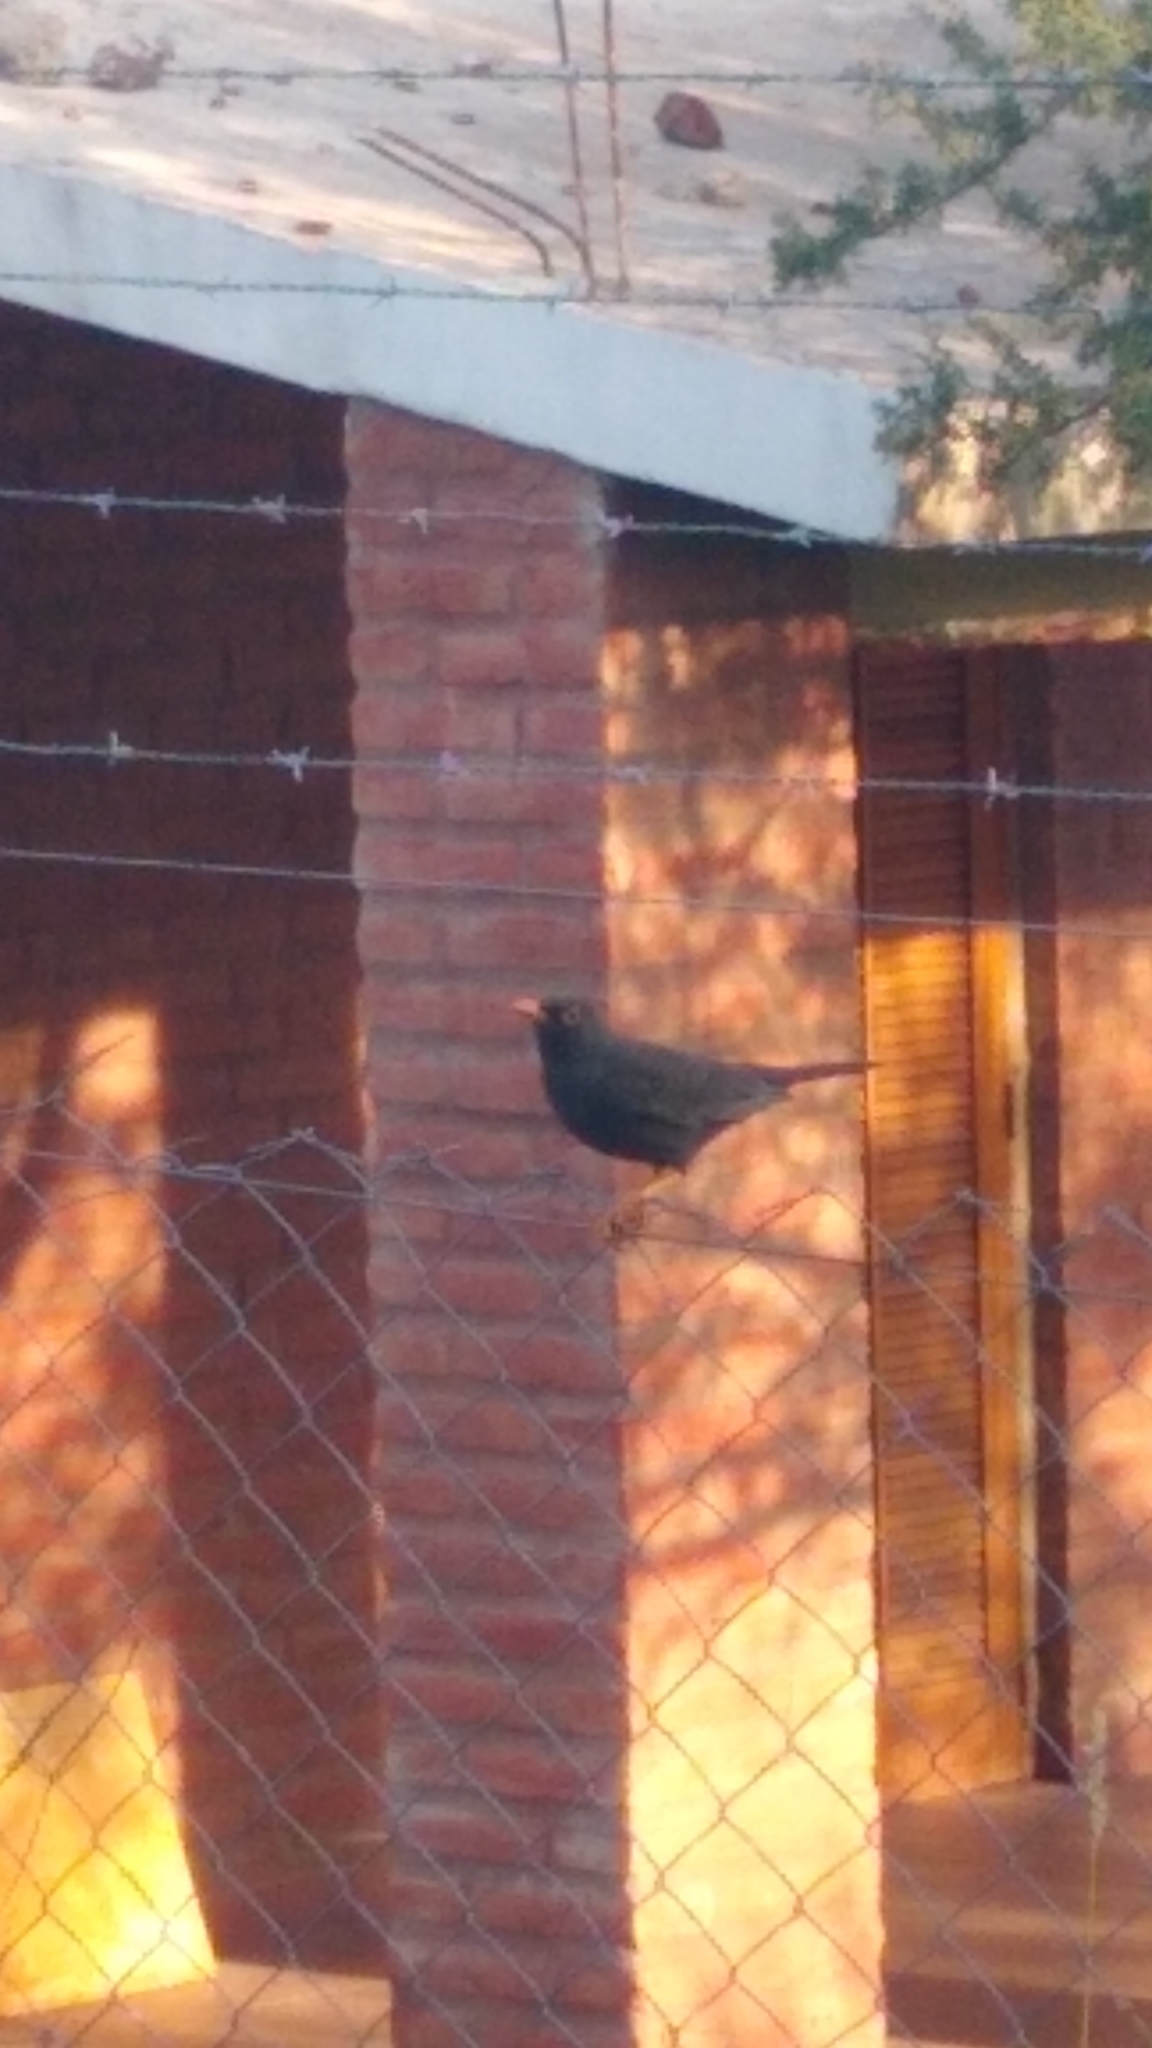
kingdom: Animalia
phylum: Chordata
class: Aves
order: Passeriformes
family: Turdidae
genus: Turdus
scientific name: Turdus chiguanco
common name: Chiguanco thrush
